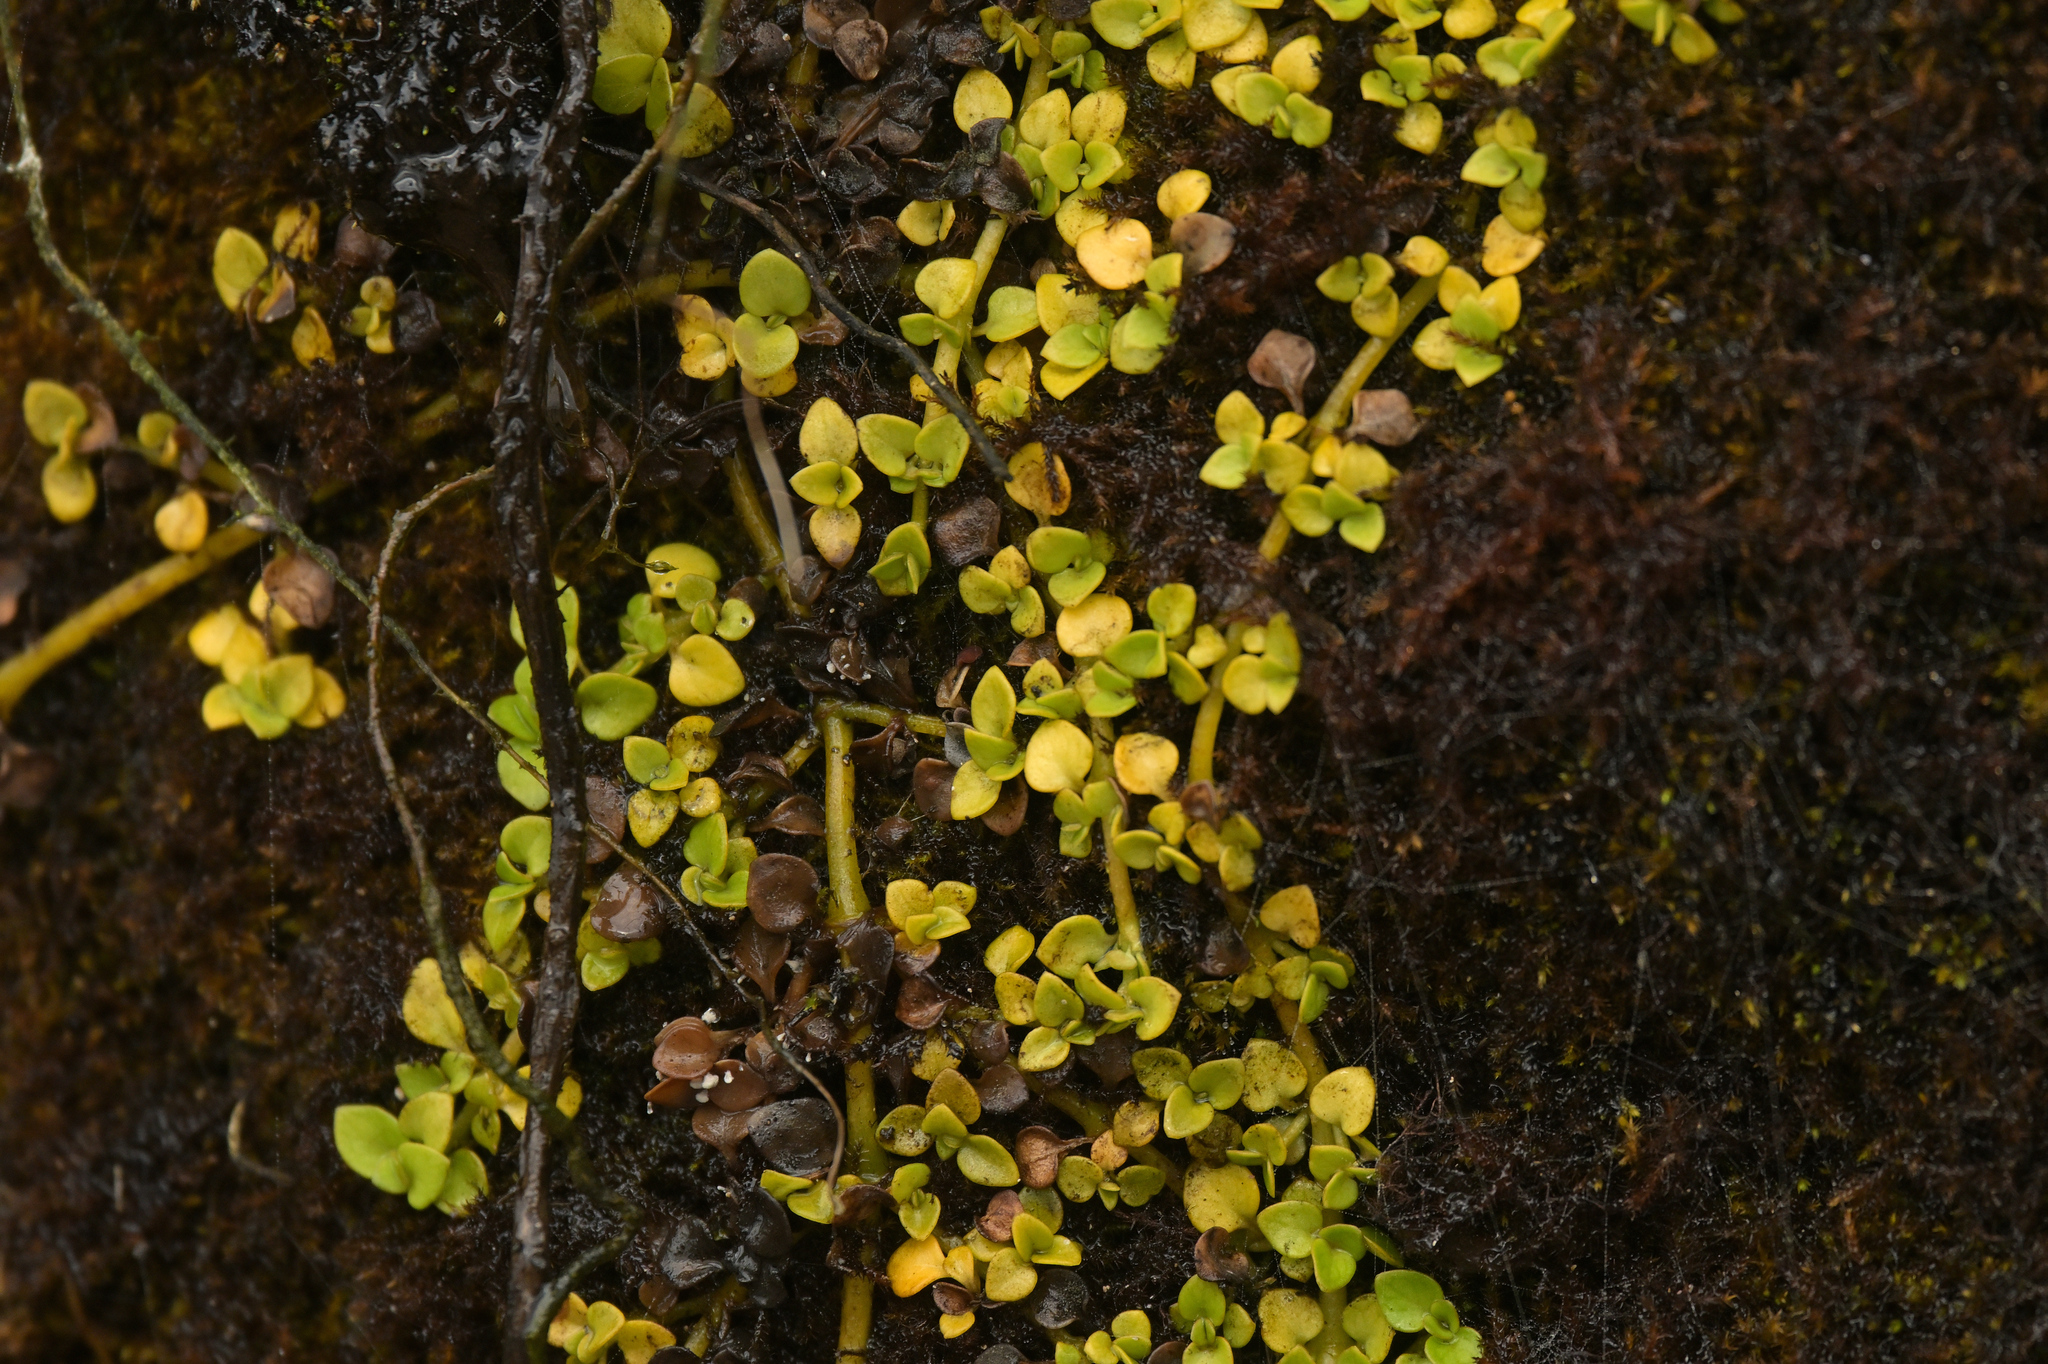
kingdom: Plantae
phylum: Tracheophyta
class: Magnoliopsida
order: Gentianales
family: Rubiaceae
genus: Nertera
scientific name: Nertera granadensis
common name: Beadplant
